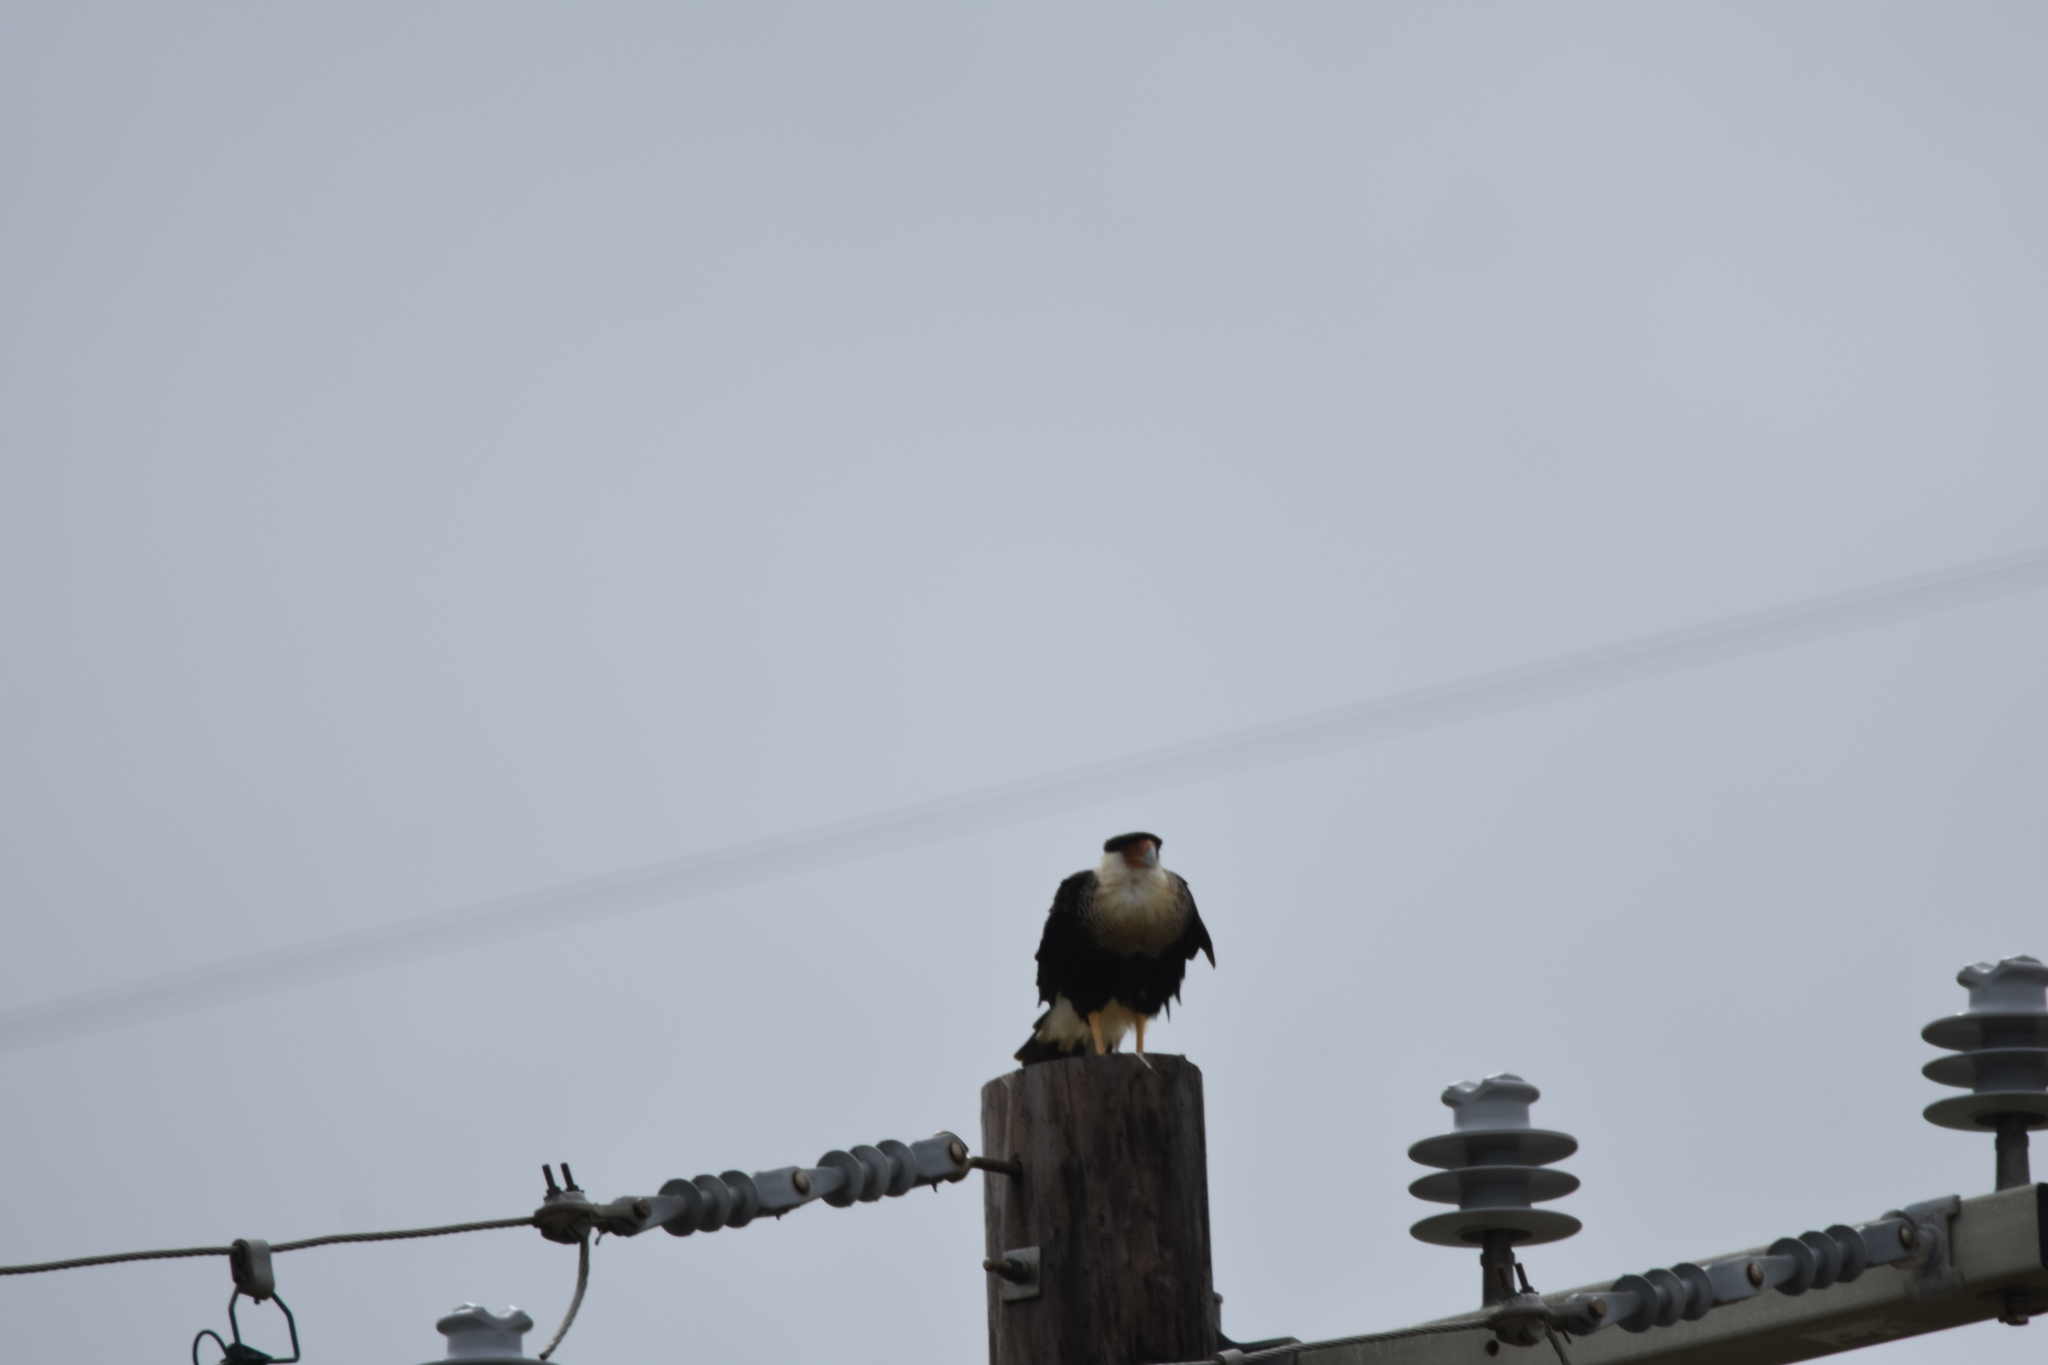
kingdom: Animalia
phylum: Chordata
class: Aves
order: Falconiformes
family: Falconidae
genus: Caracara
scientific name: Caracara plancus
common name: Southern caracara
